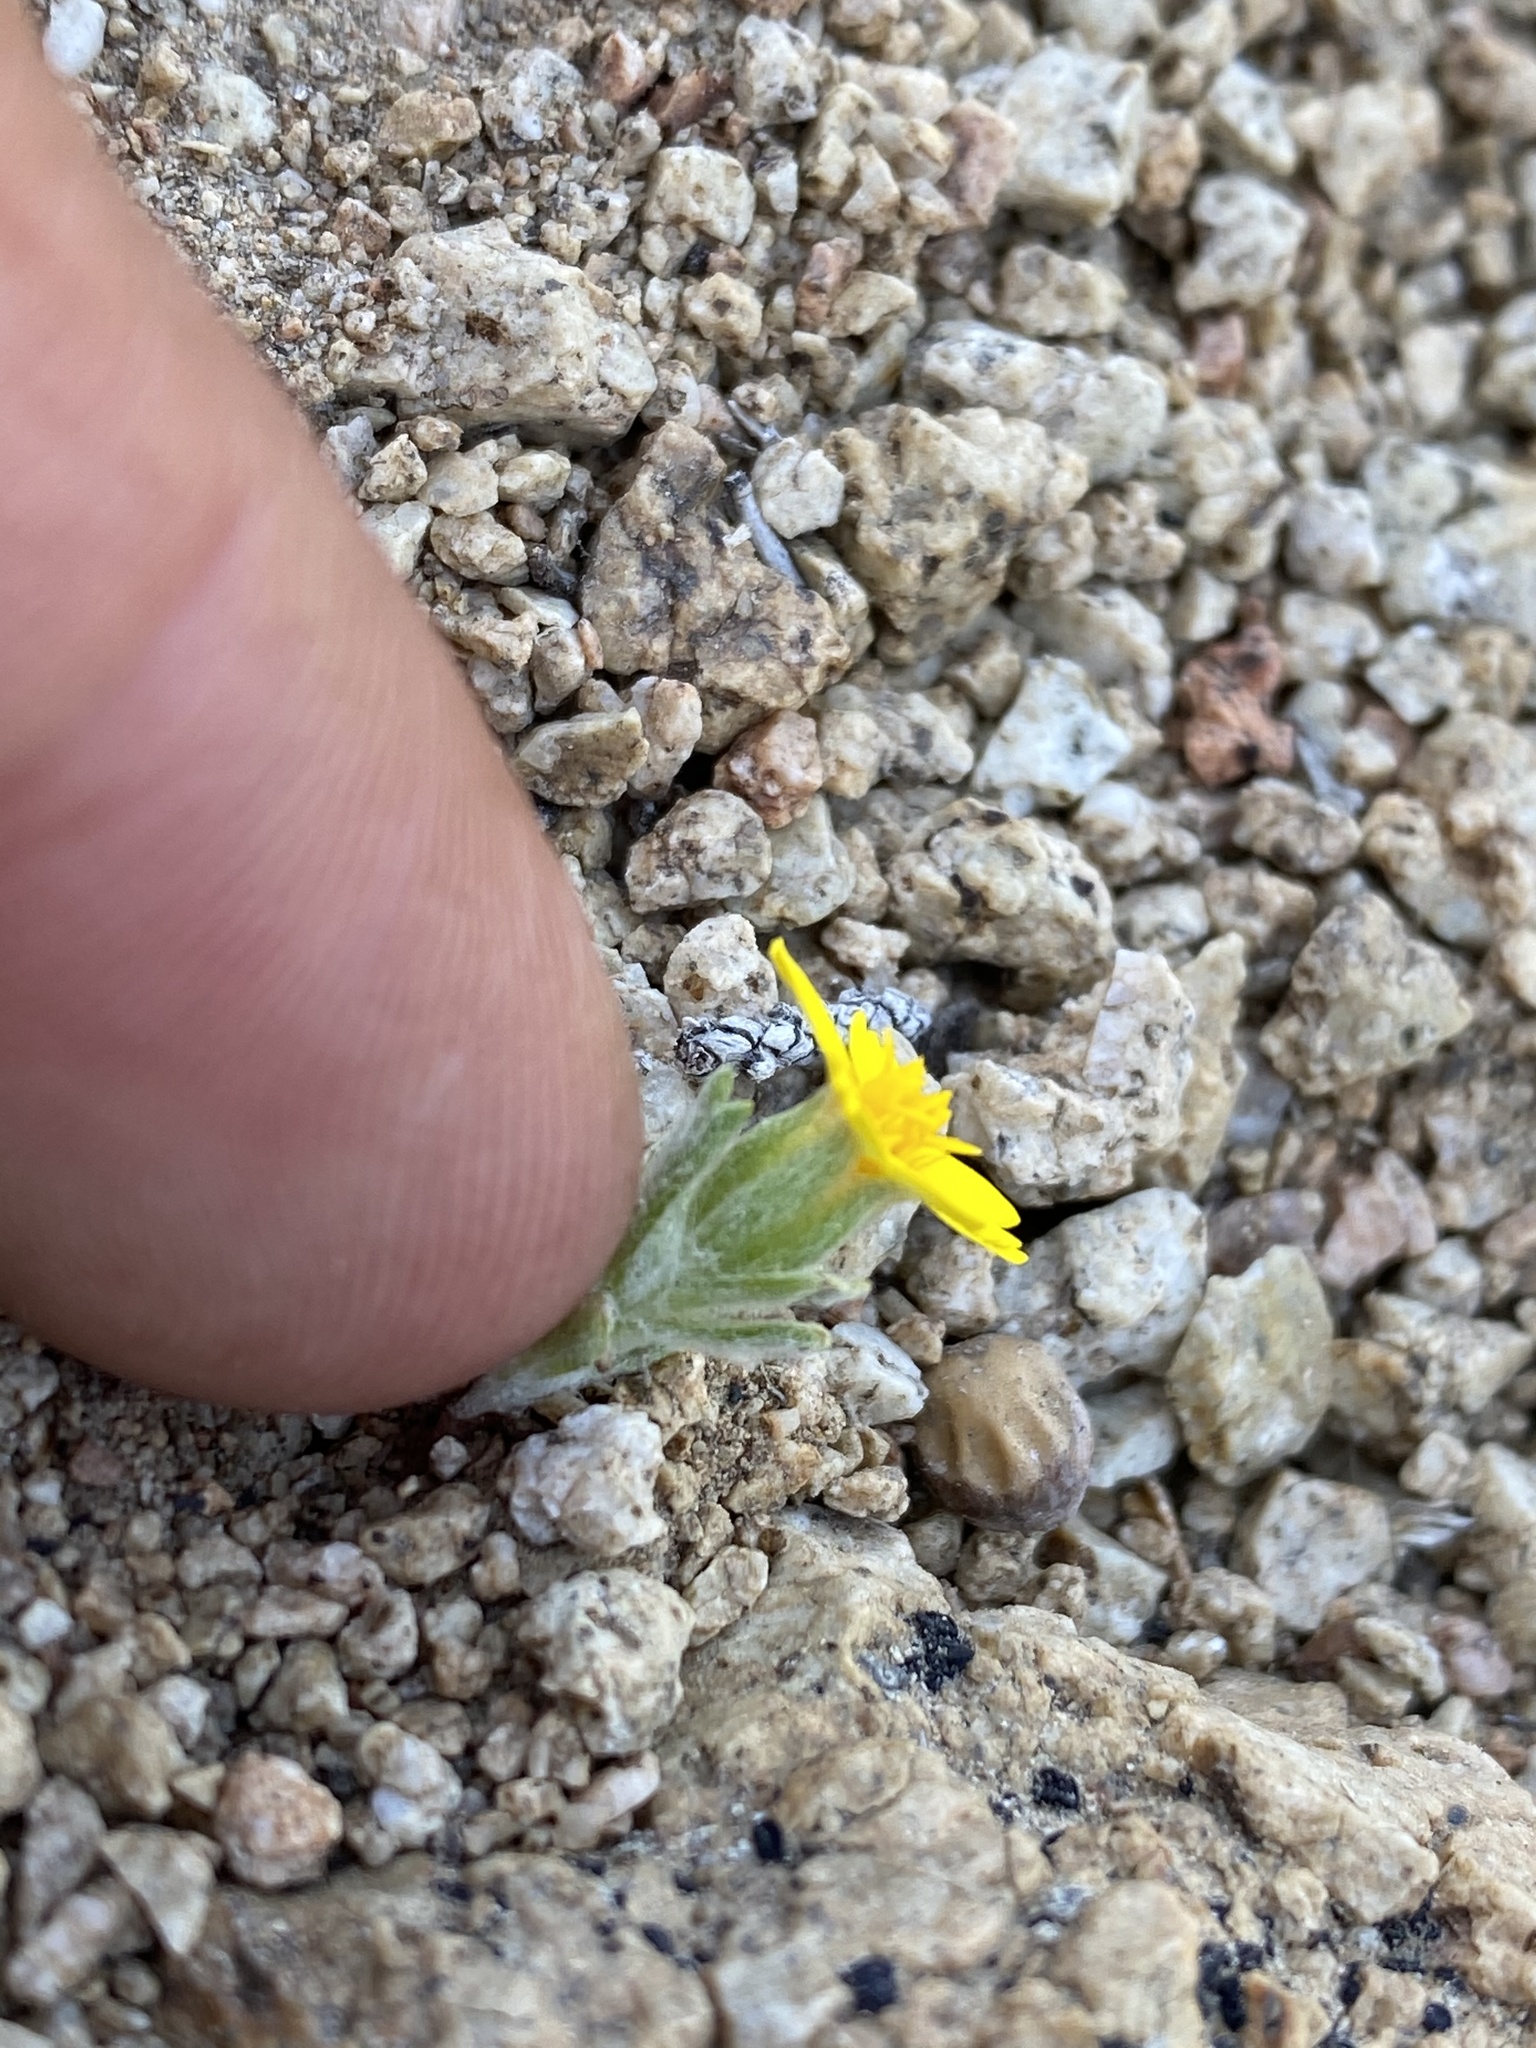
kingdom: Plantae
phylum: Tracheophyta
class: Magnoliopsida
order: Asterales
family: Asteraceae
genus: Syntrichopappus
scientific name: Syntrichopappus fremontii
